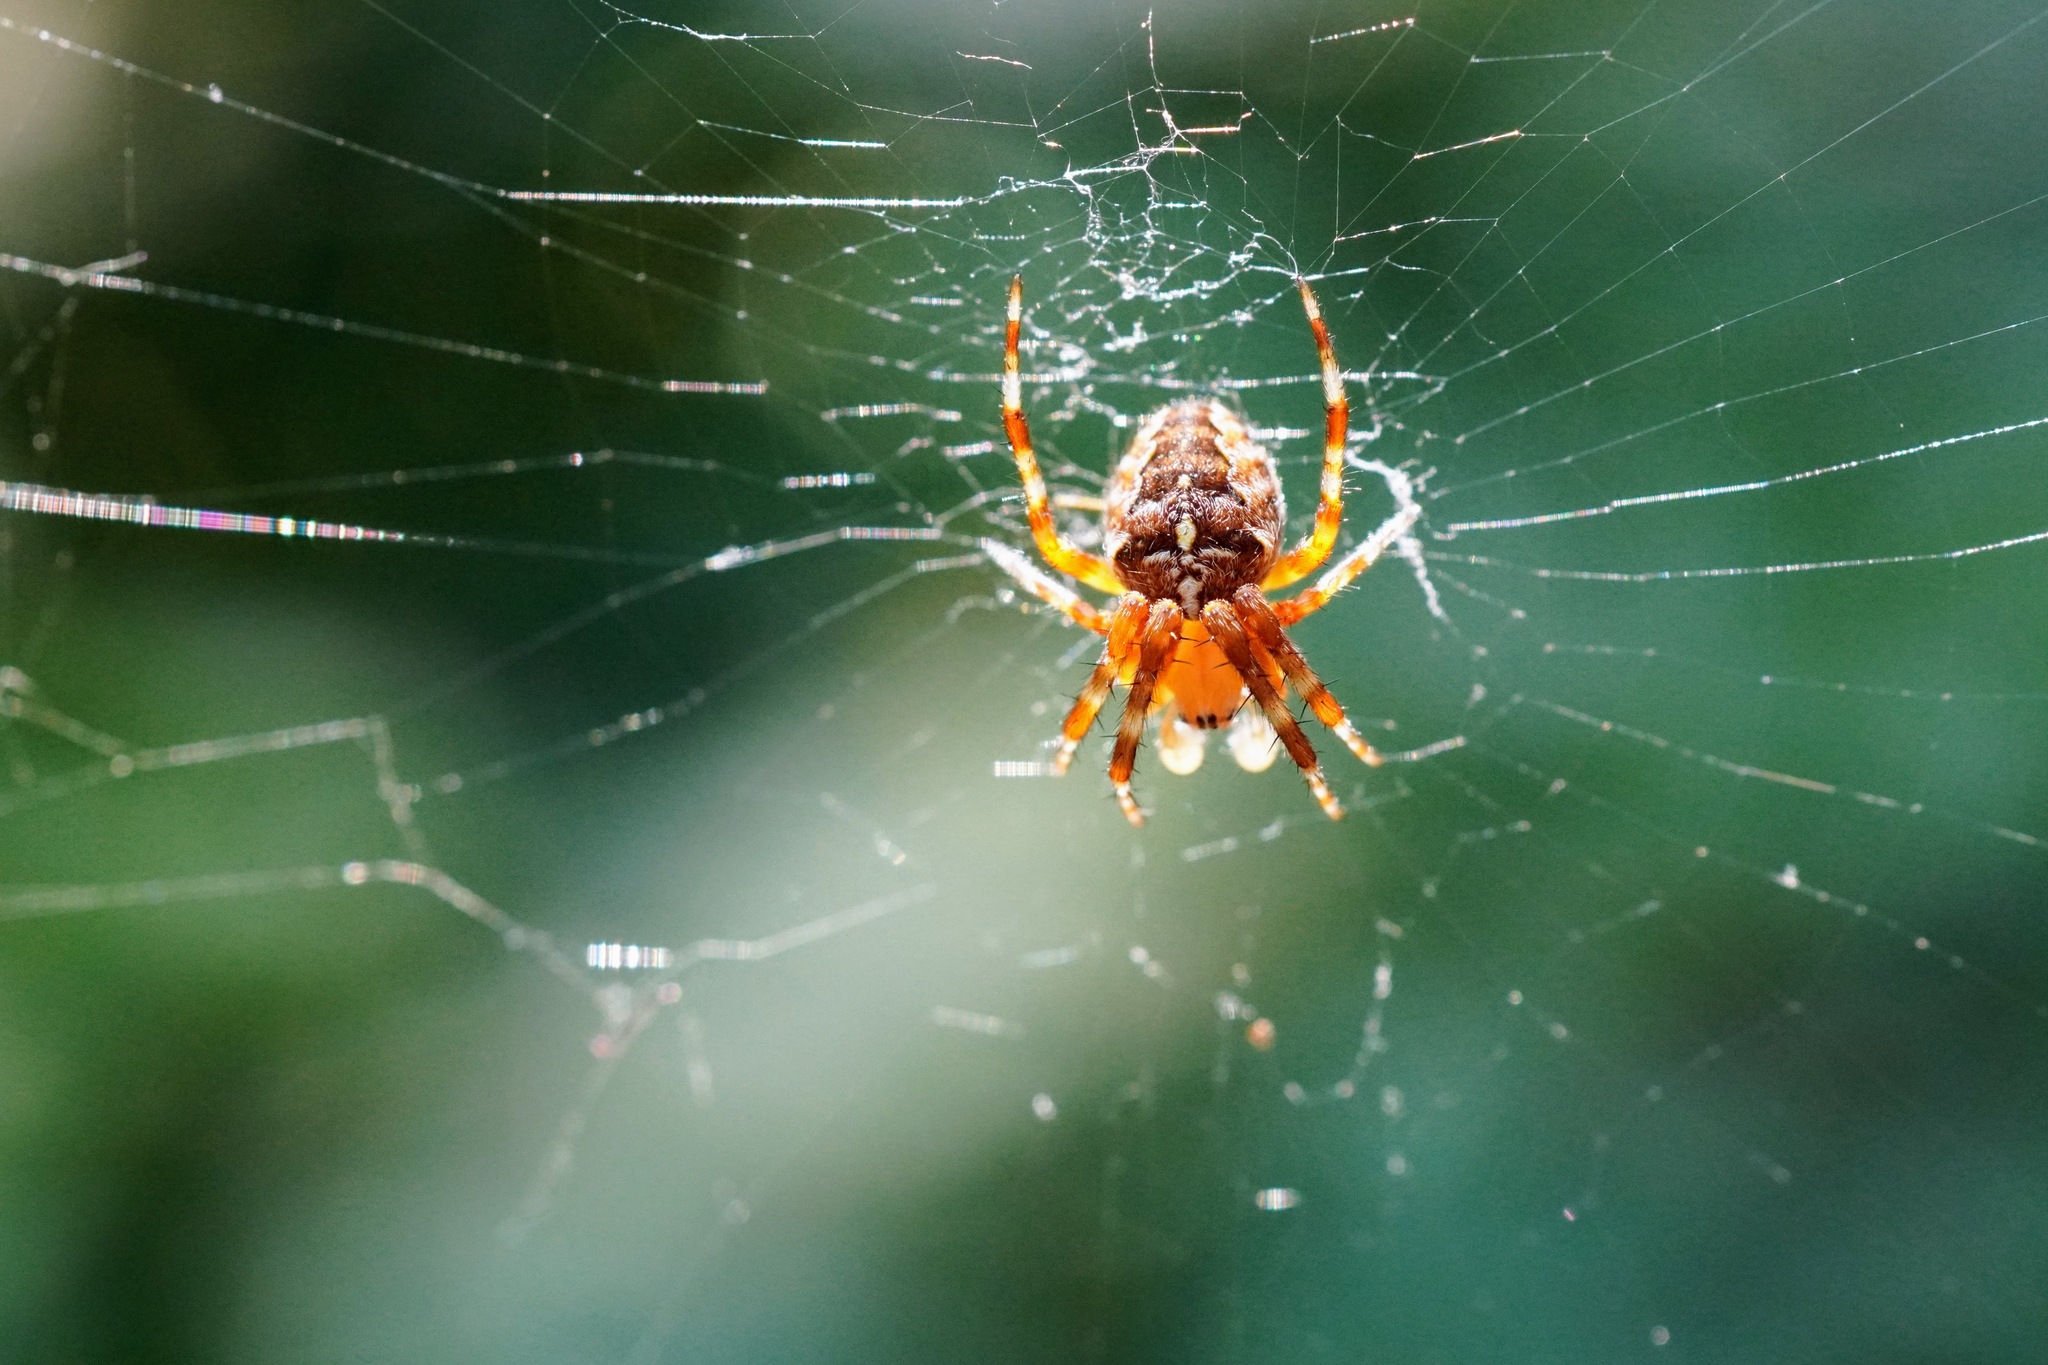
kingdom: Animalia
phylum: Arthropoda
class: Arachnida
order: Araneae
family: Araneidae
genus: Araneus
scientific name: Araneus diadematus
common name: Cross orbweaver
